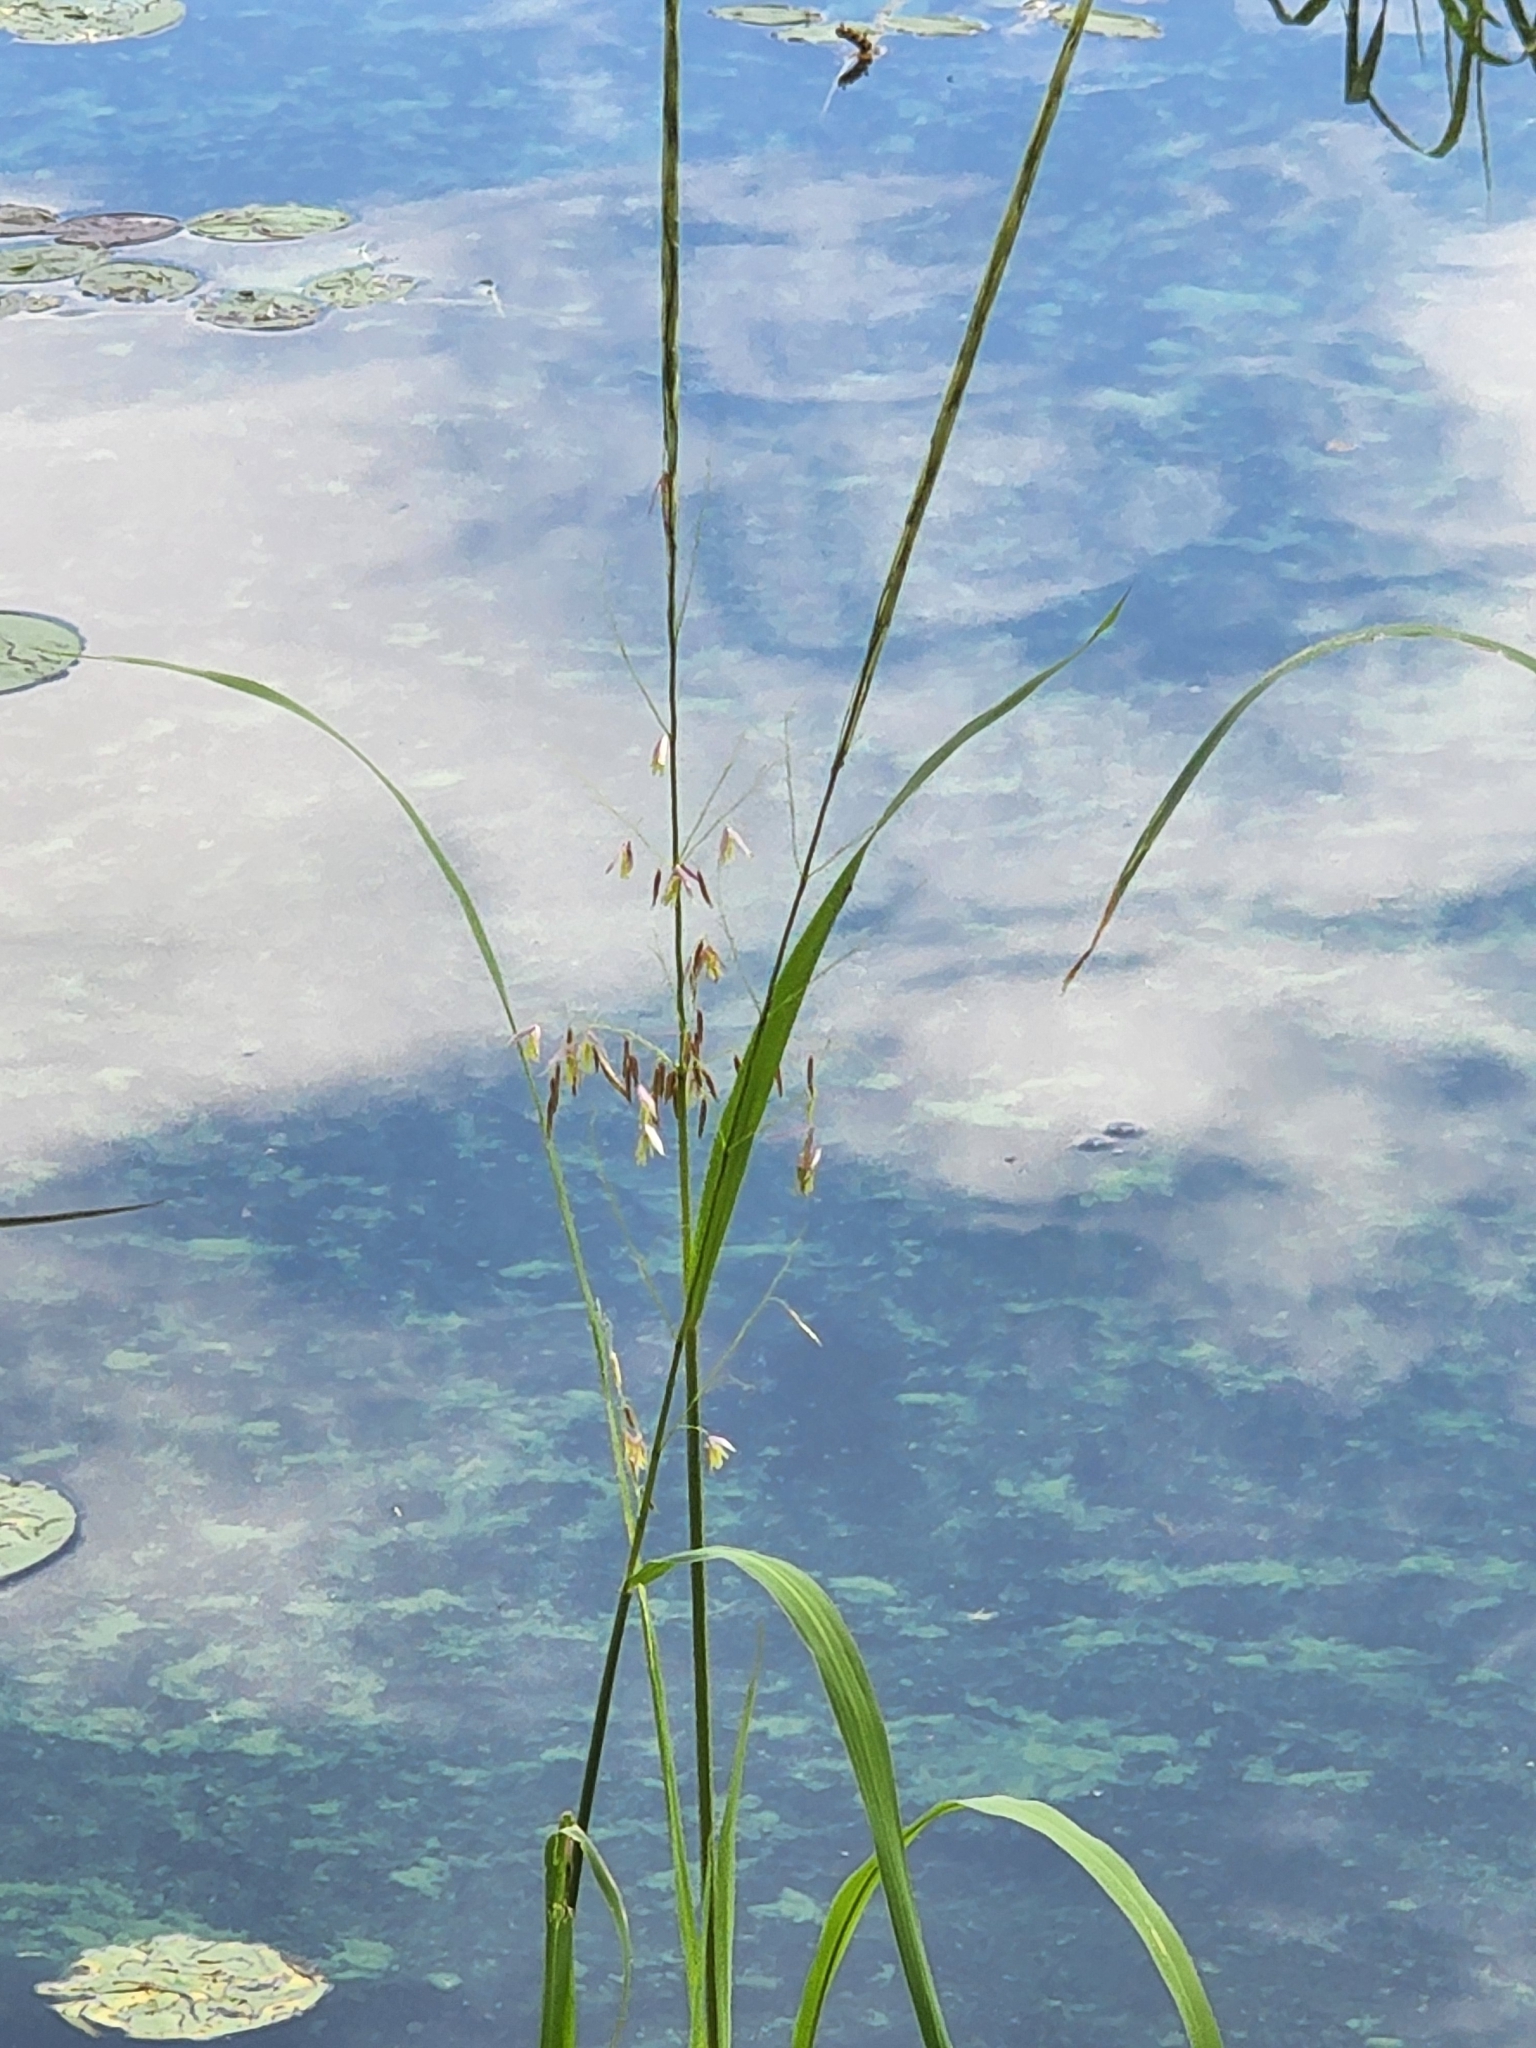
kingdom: Plantae
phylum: Tracheophyta
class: Liliopsida
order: Poales
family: Poaceae
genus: Zizania
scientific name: Zizania palustris
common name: Northern wild rice
